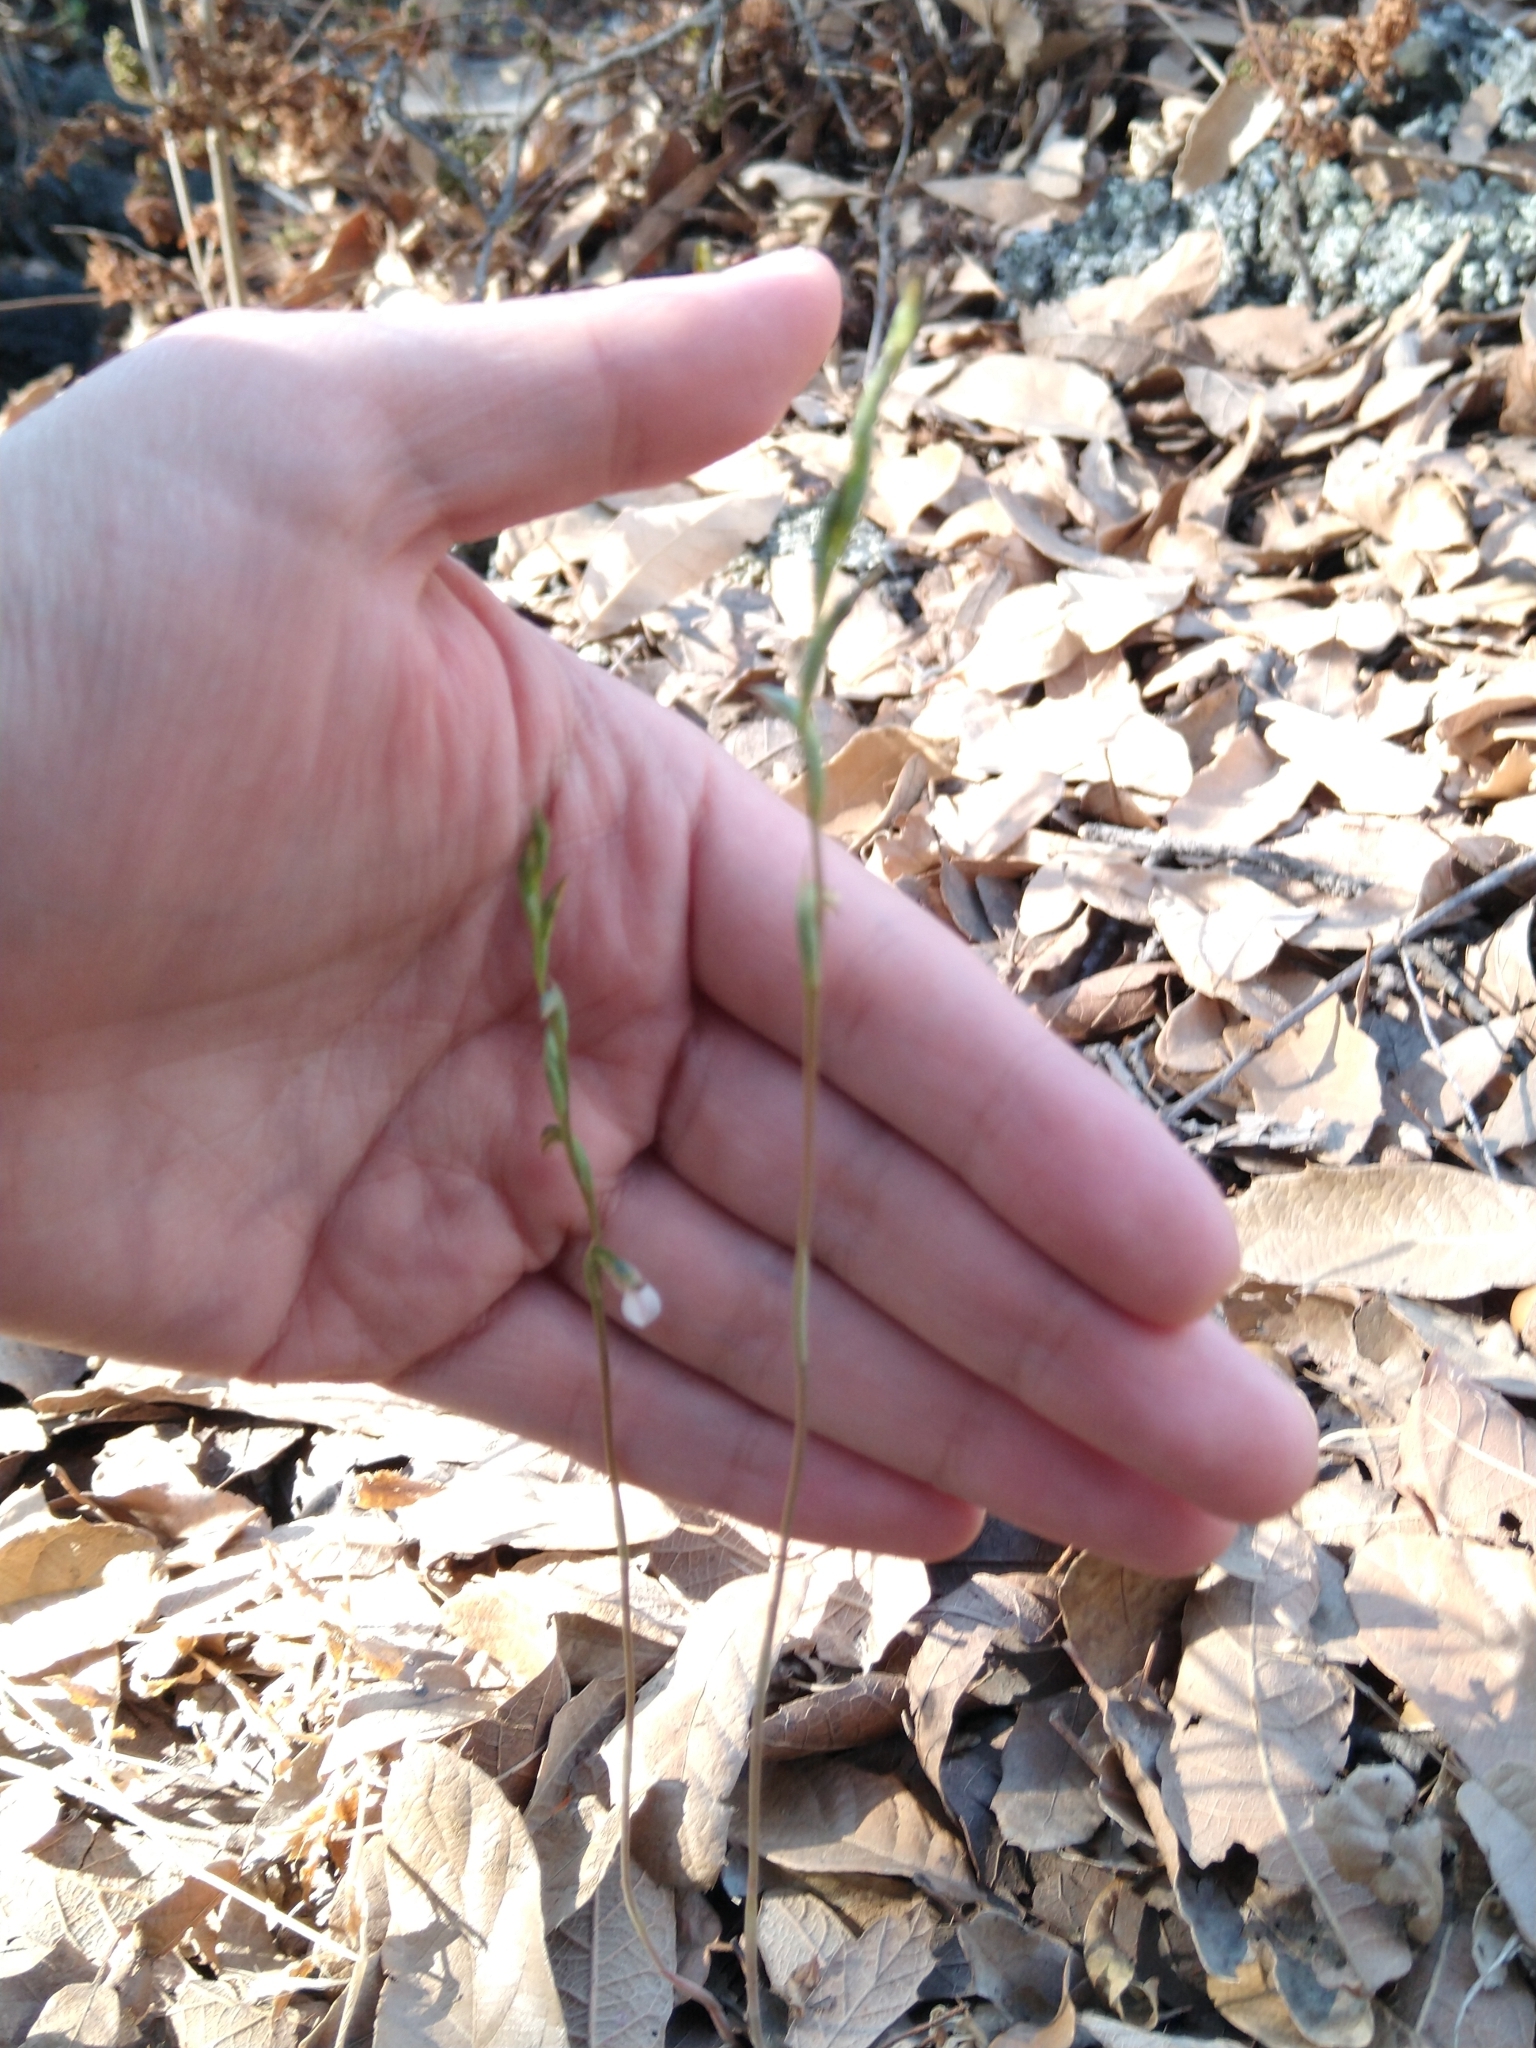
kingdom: Plantae
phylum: Tracheophyta
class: Liliopsida
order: Asparagales
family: Orchidaceae
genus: Greenwoodiella
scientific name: Greenwoodiella micrantha
